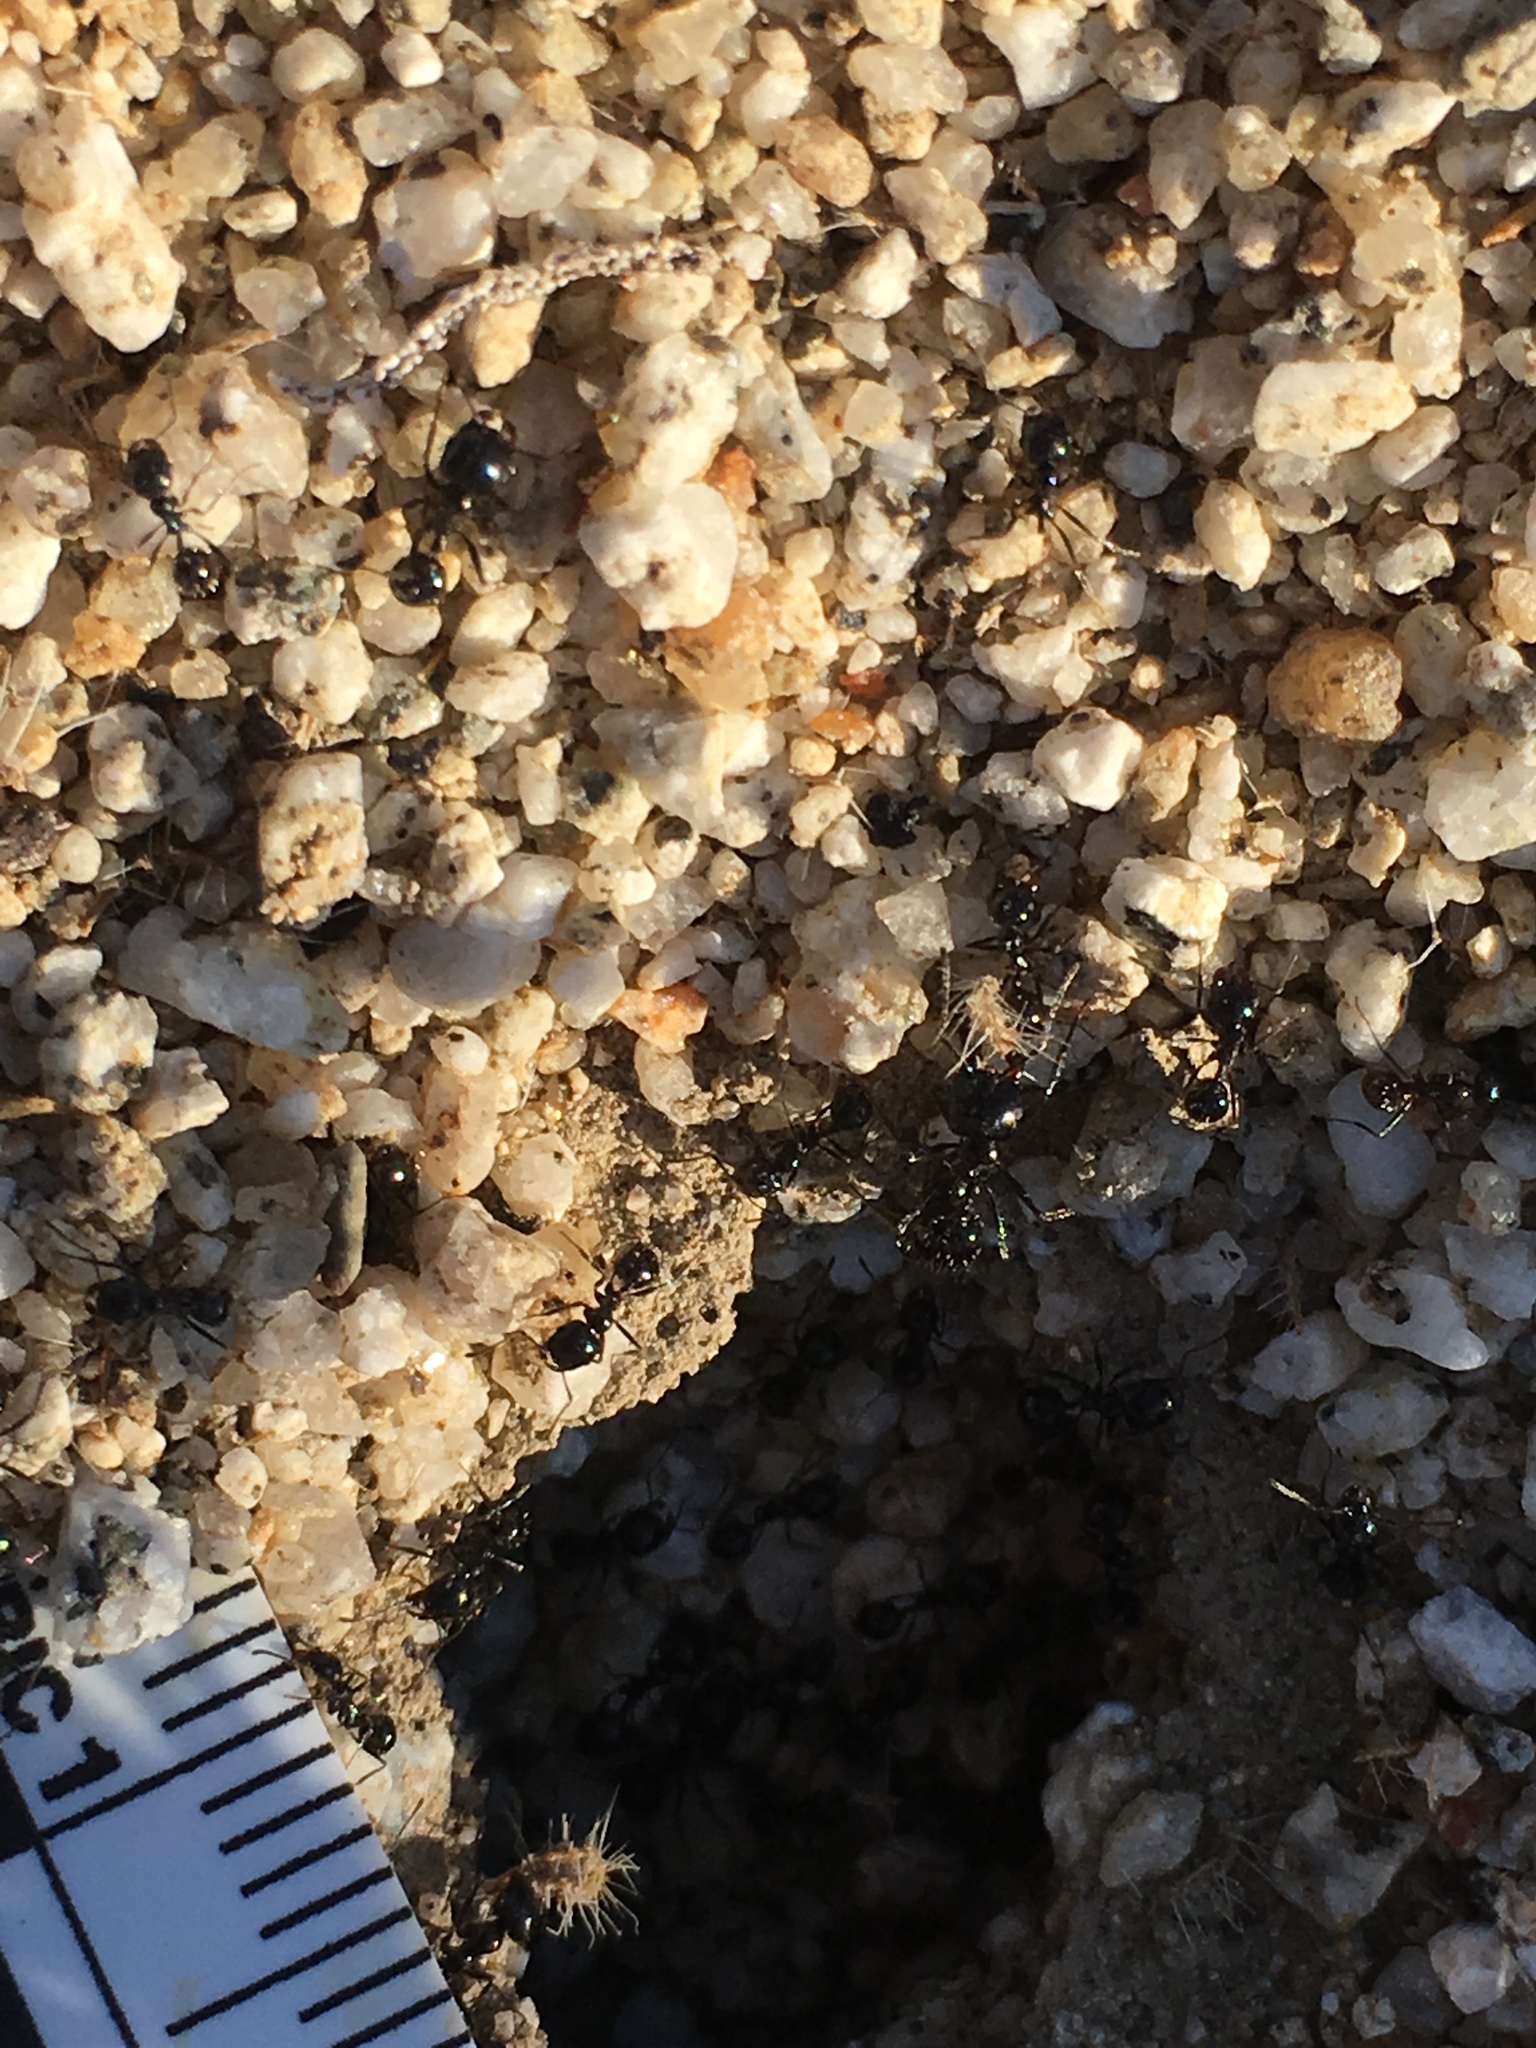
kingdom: Animalia
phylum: Arthropoda
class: Insecta
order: Hymenoptera
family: Formicidae
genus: Messor
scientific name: Messor pergandei
